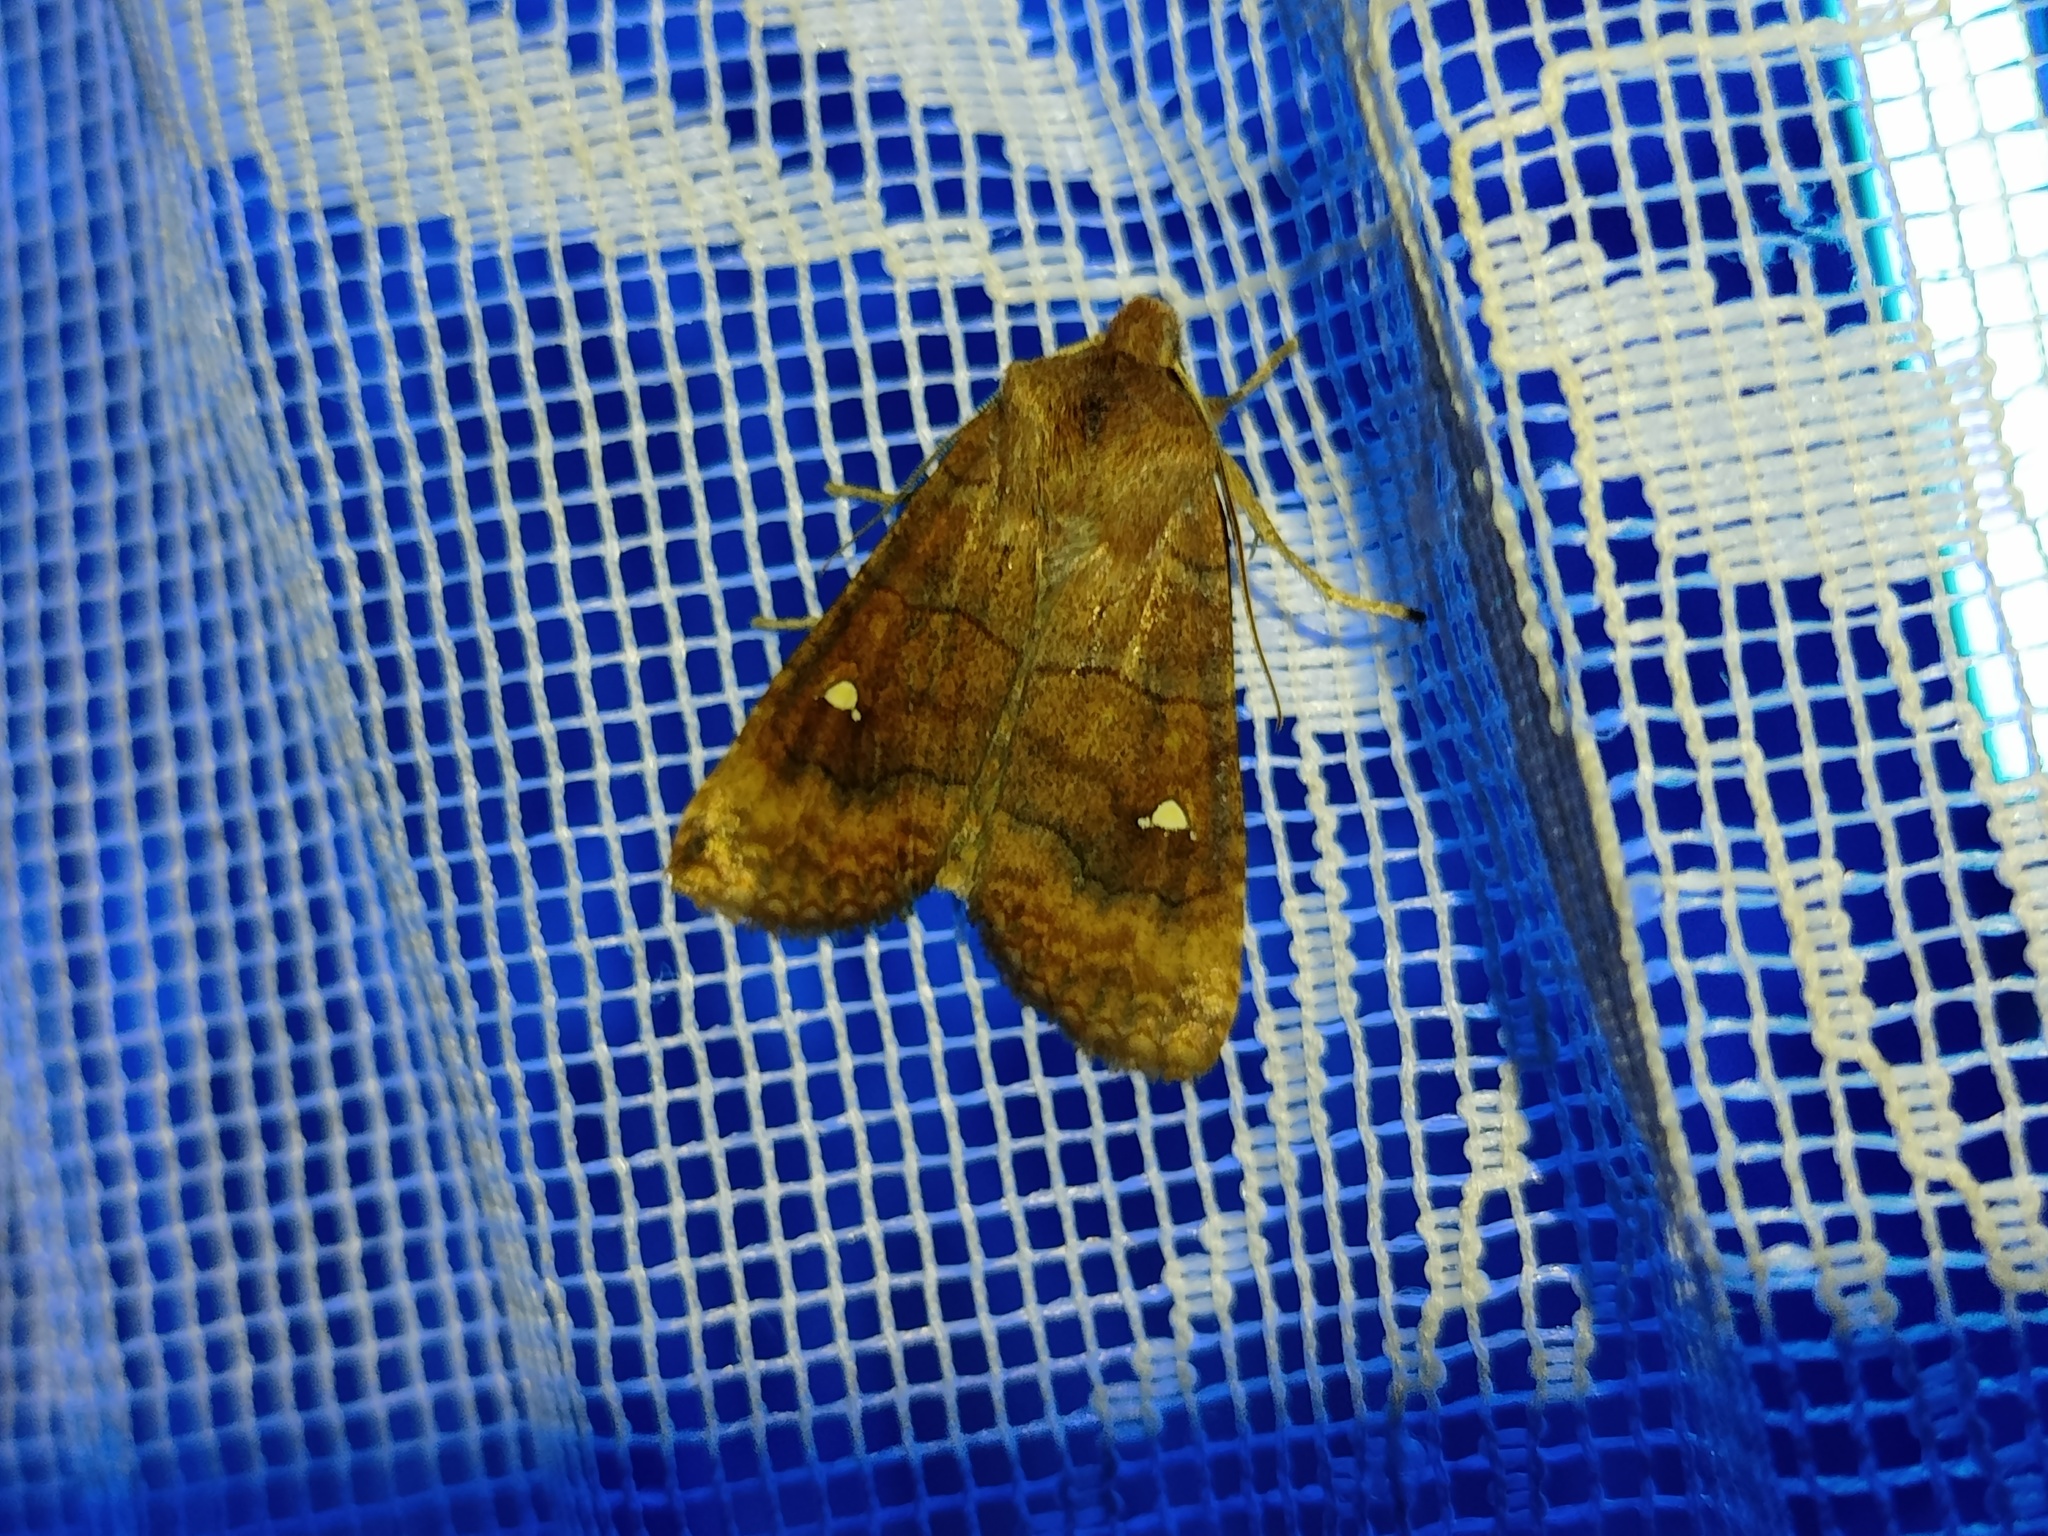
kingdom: Animalia
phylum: Arthropoda
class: Insecta
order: Lepidoptera
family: Noctuidae
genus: Eupsilia
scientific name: Eupsilia transversa
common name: Satellite
